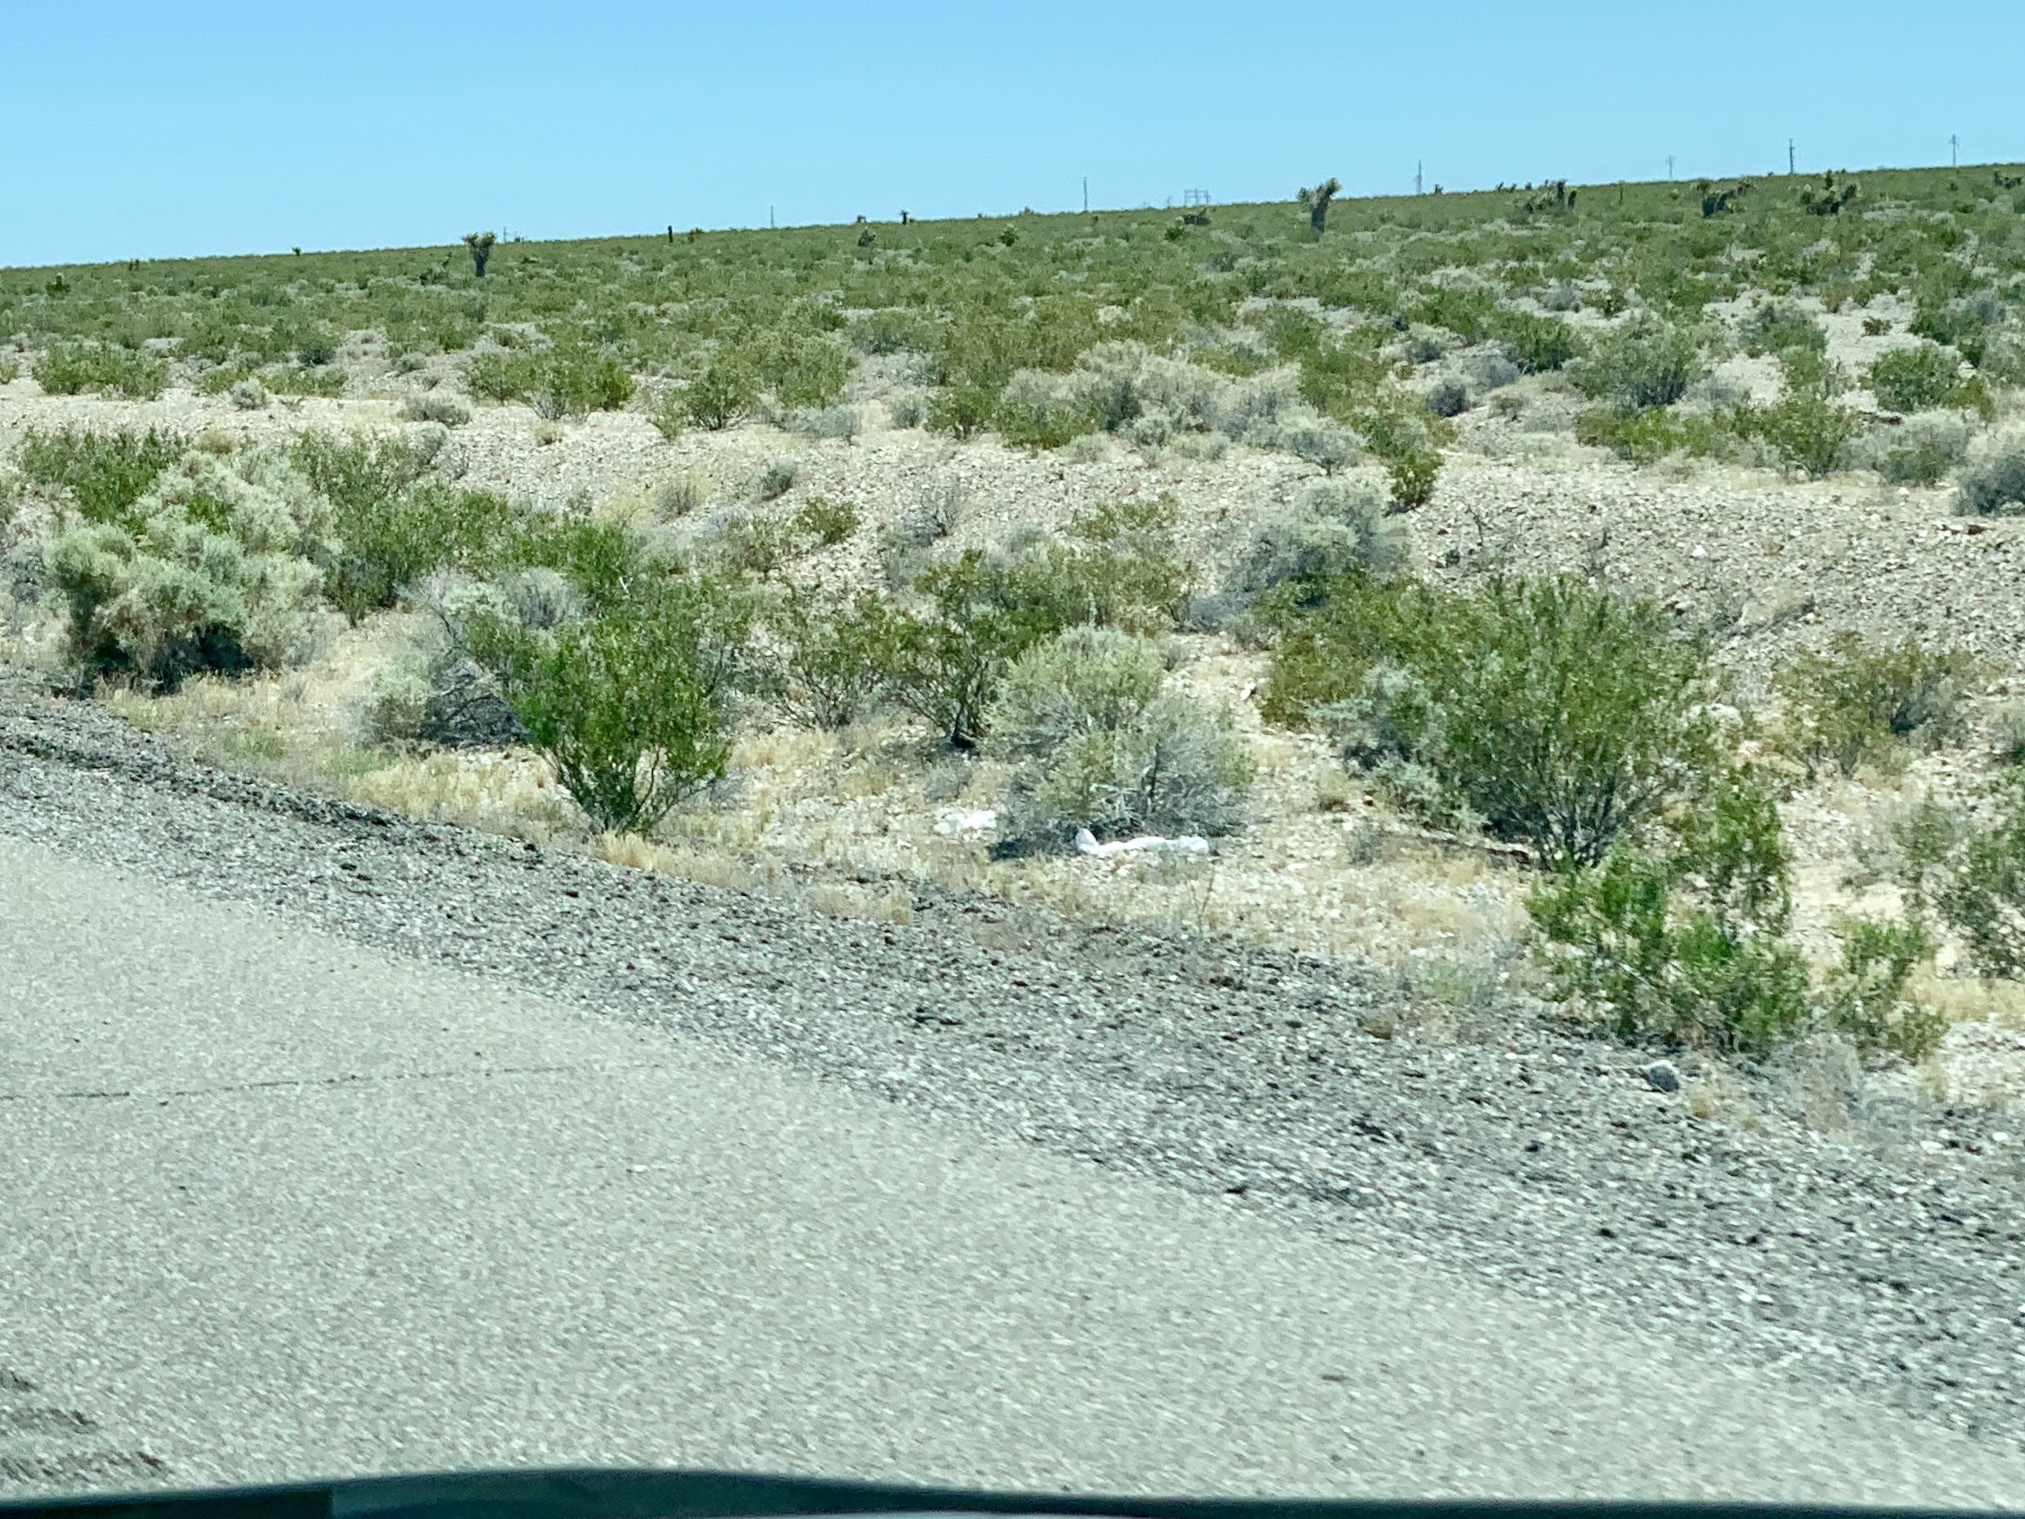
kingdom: Plantae
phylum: Tracheophyta
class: Magnoliopsida
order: Zygophyllales
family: Zygophyllaceae
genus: Larrea
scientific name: Larrea tridentata
